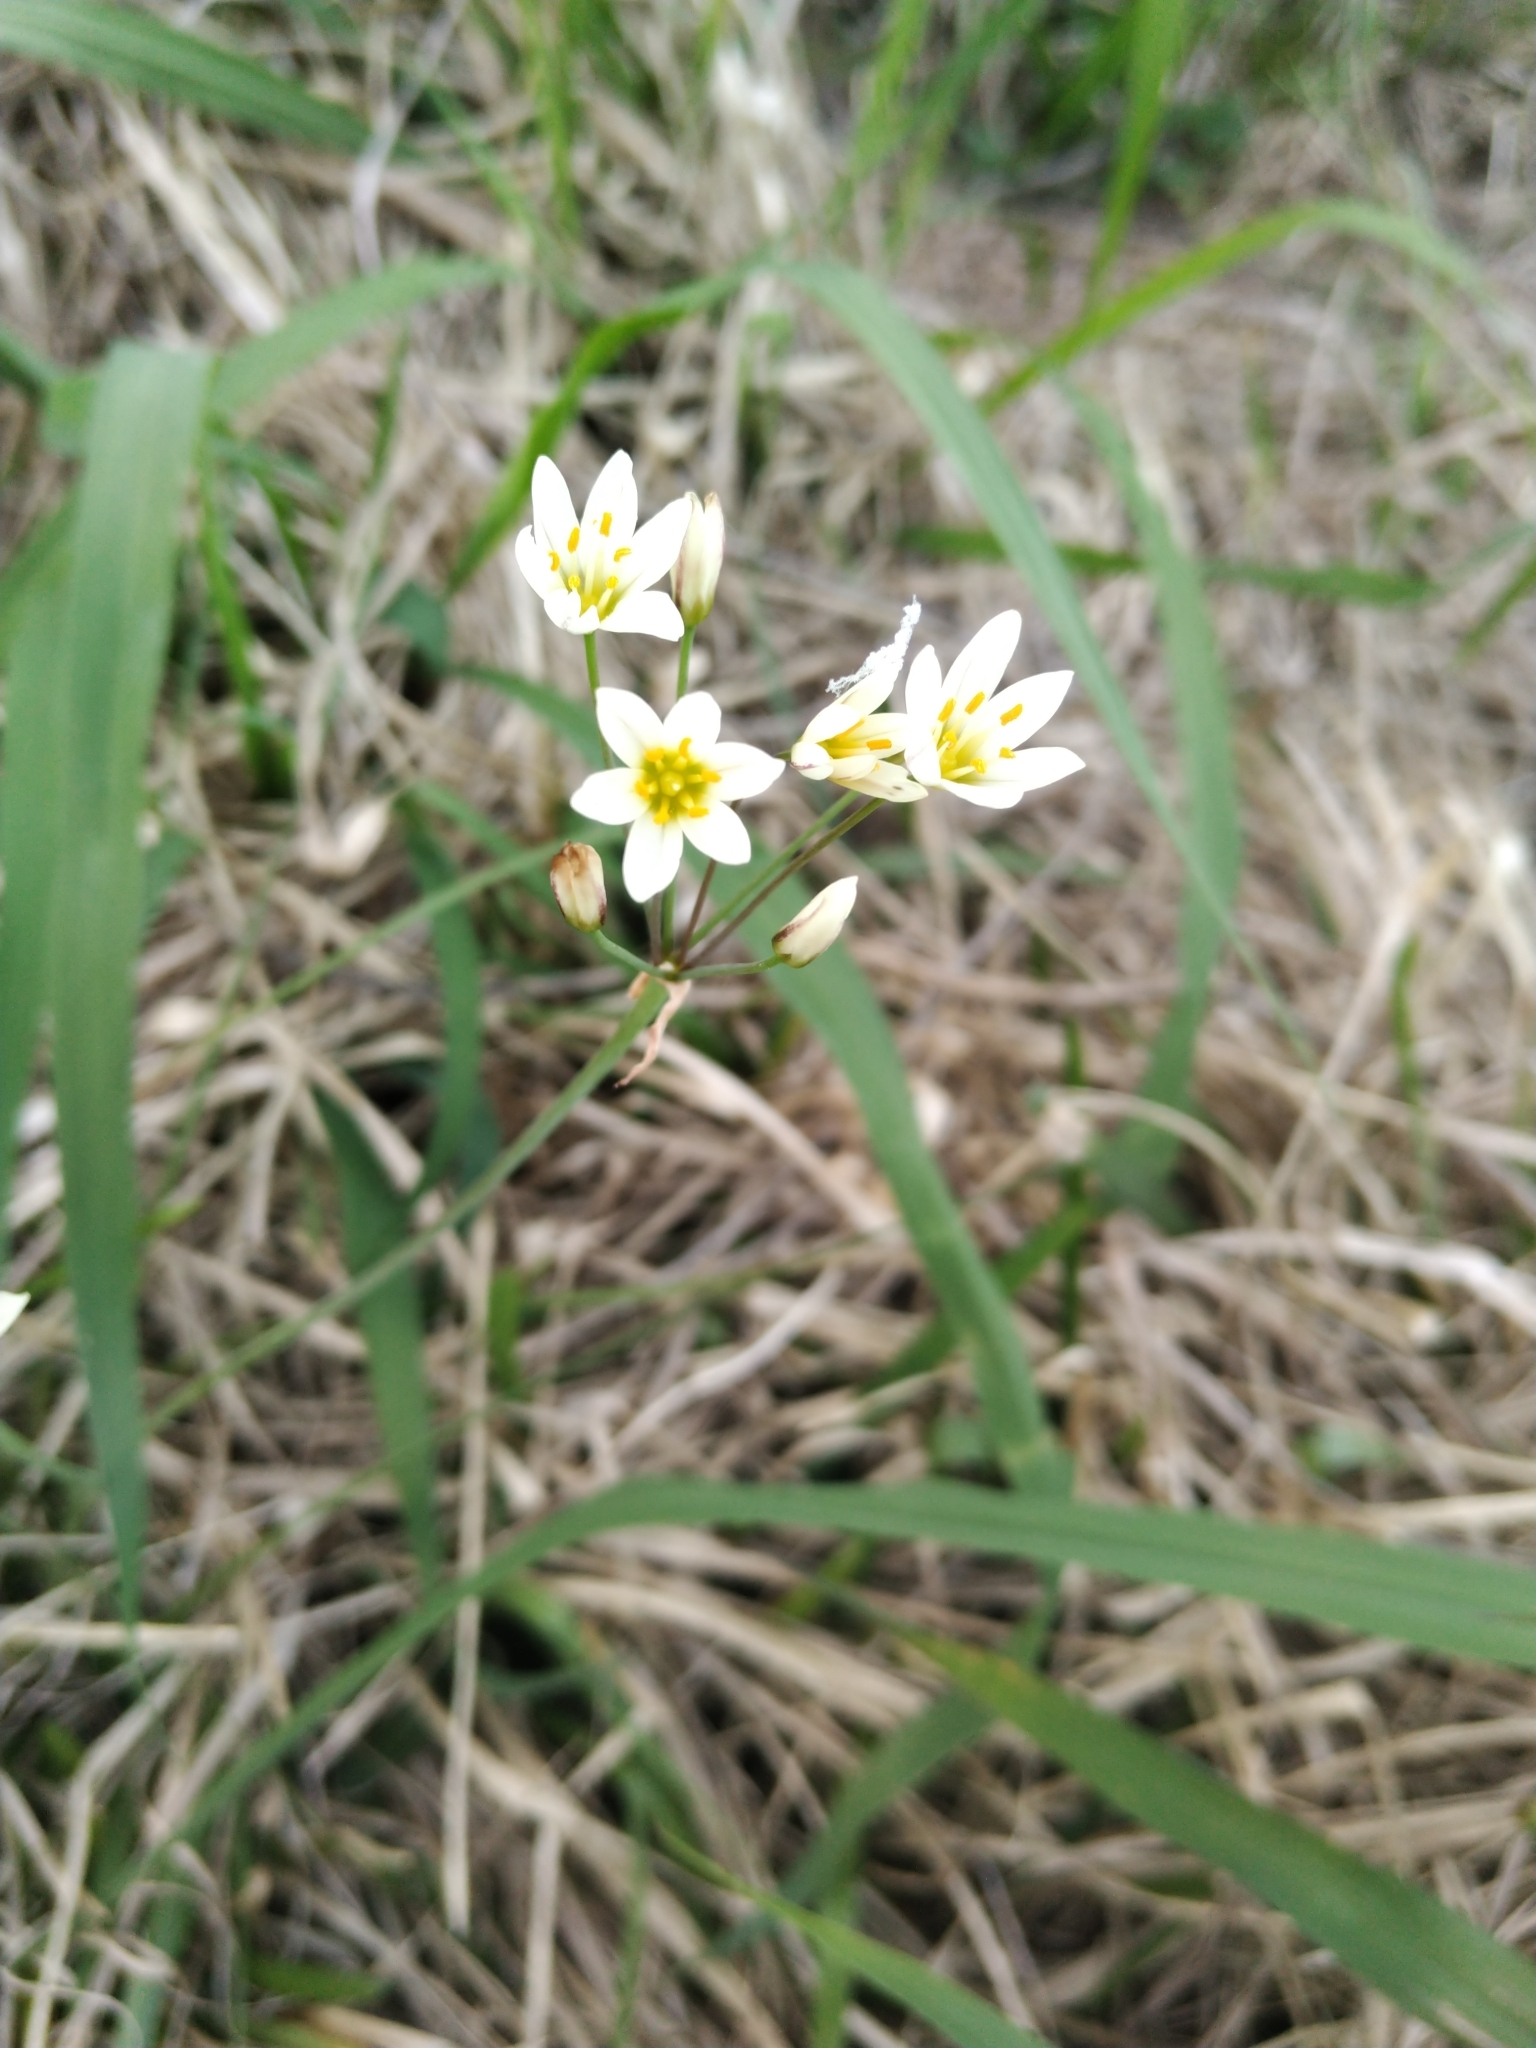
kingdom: Plantae
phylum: Tracheophyta
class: Liliopsida
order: Asparagales
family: Amaryllidaceae
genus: Nothoscordum
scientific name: Nothoscordum bivalve
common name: Crow-poison
